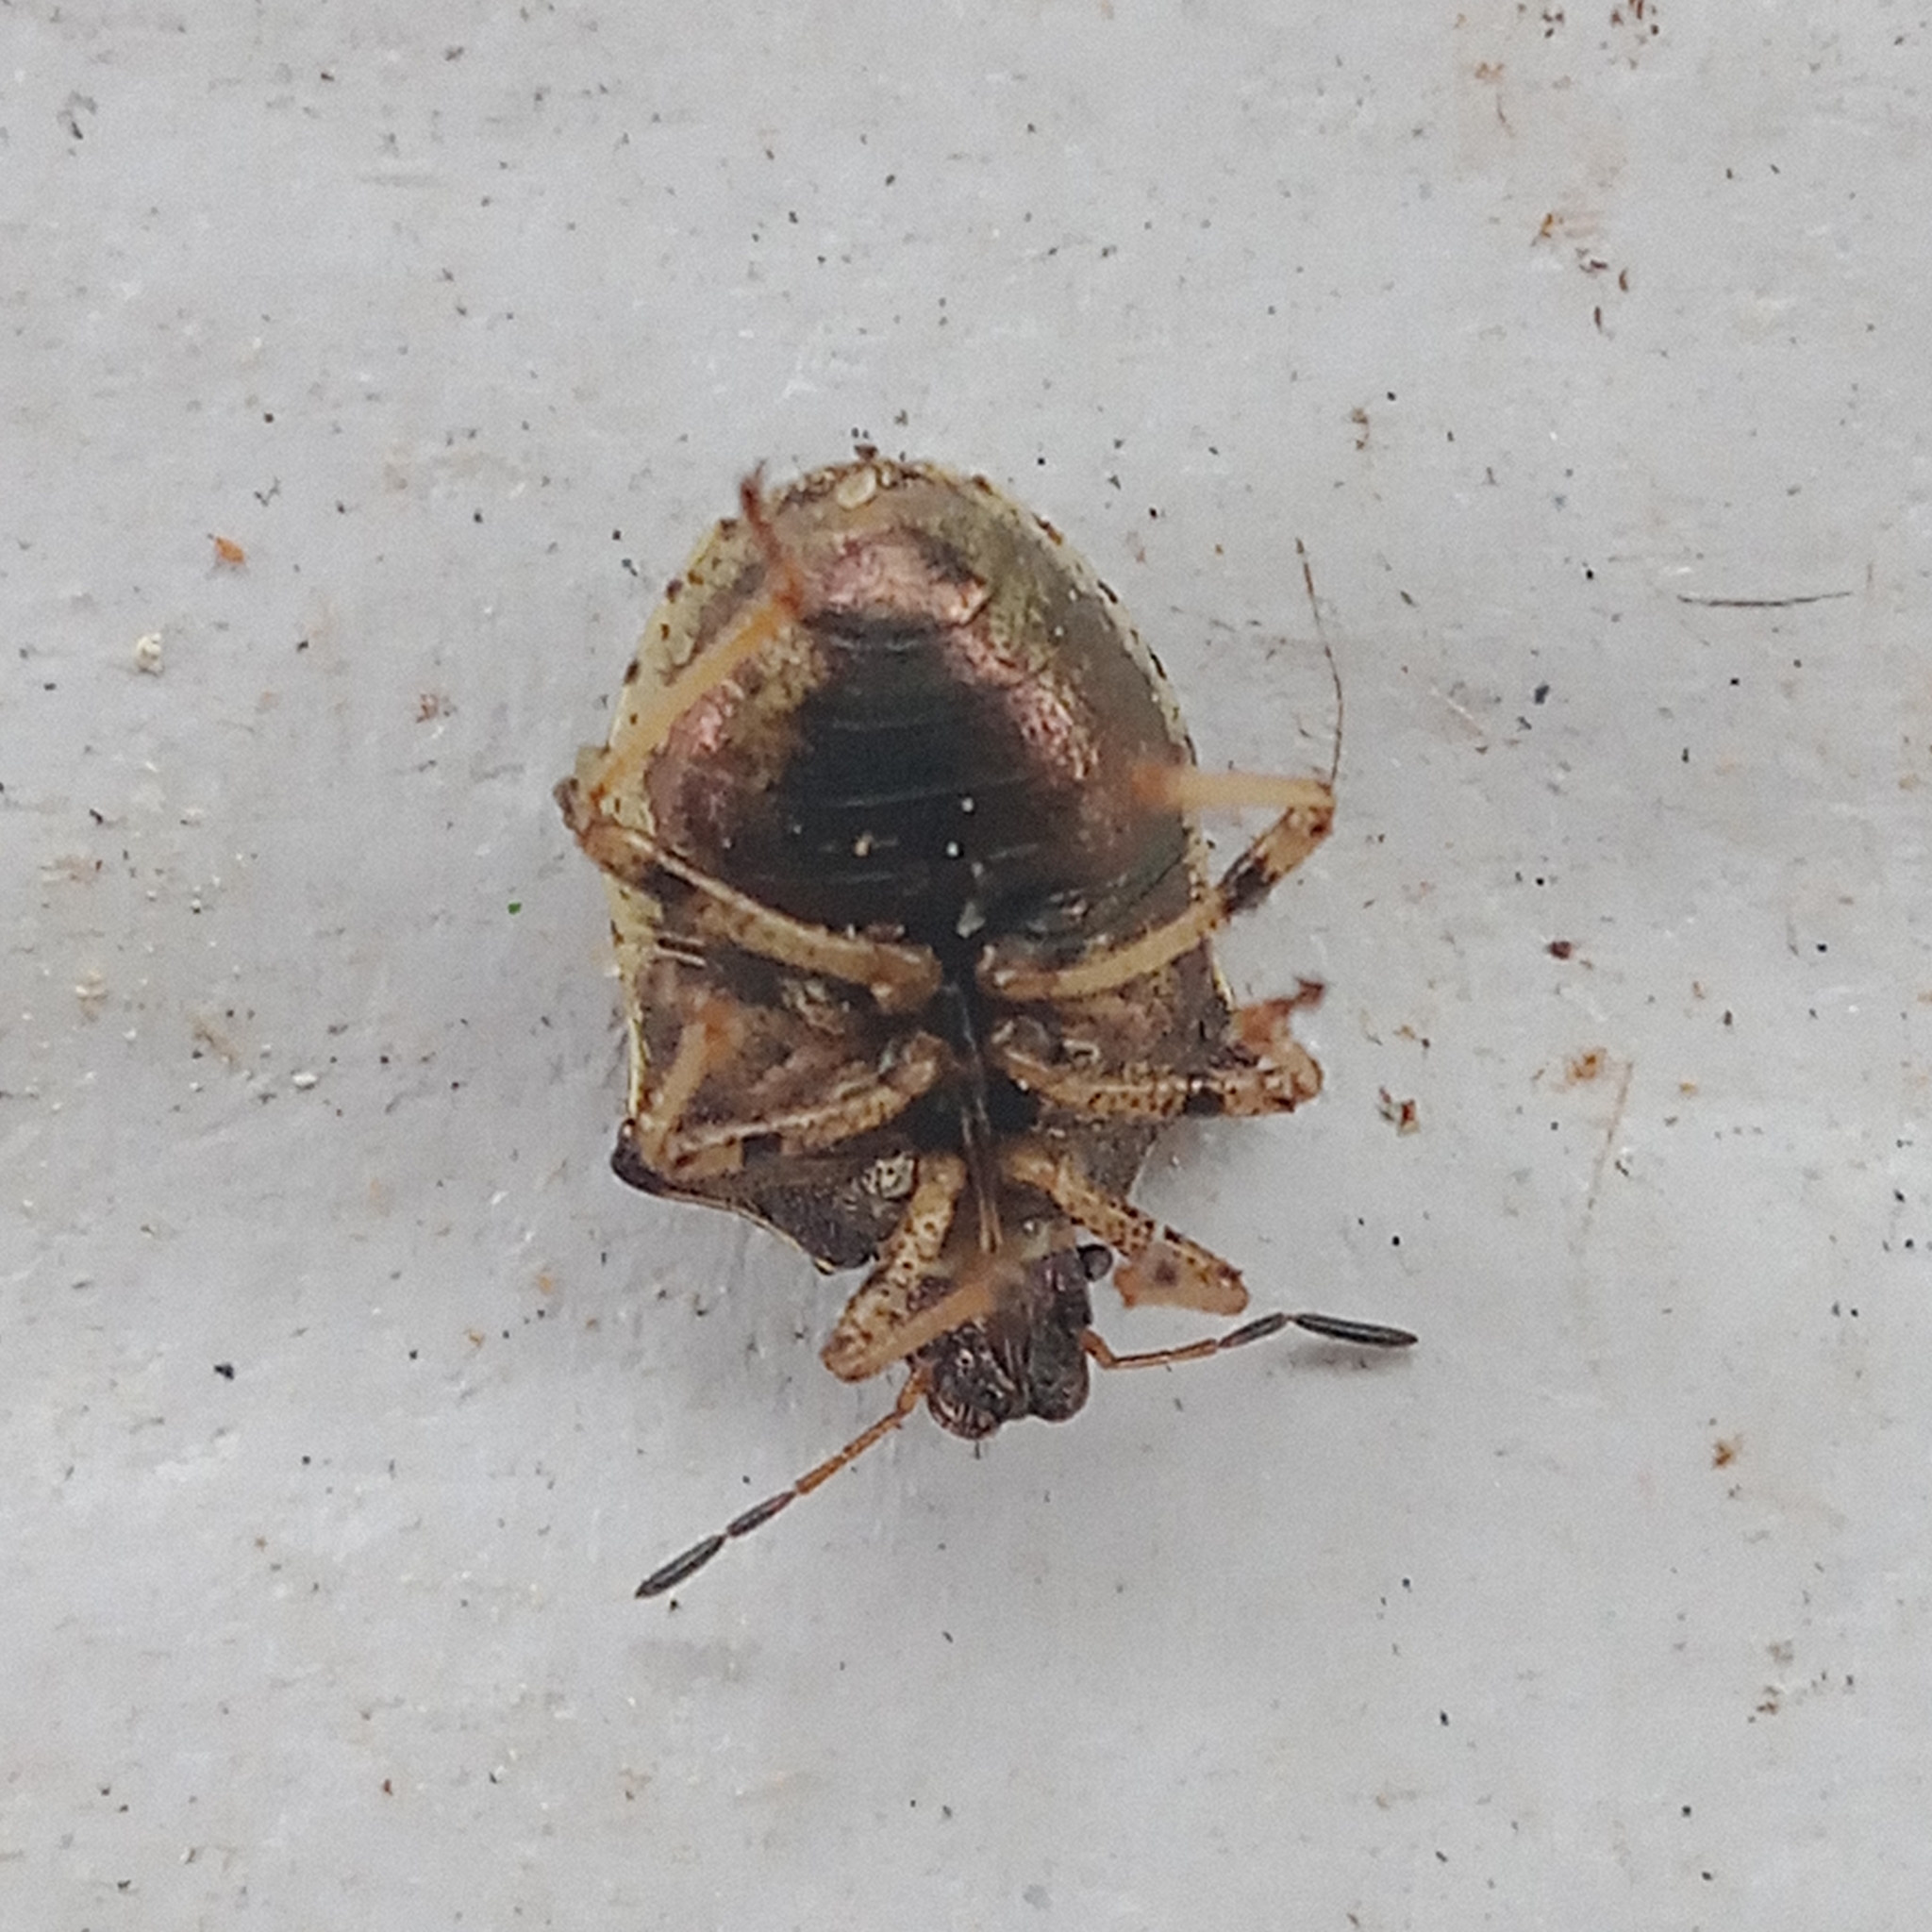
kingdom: Animalia
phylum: Arthropoda
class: Insecta
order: Hemiptera
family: Pentatomidae
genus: Eysarcoris
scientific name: Eysarcoris aeneus
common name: New forest shieldbug
